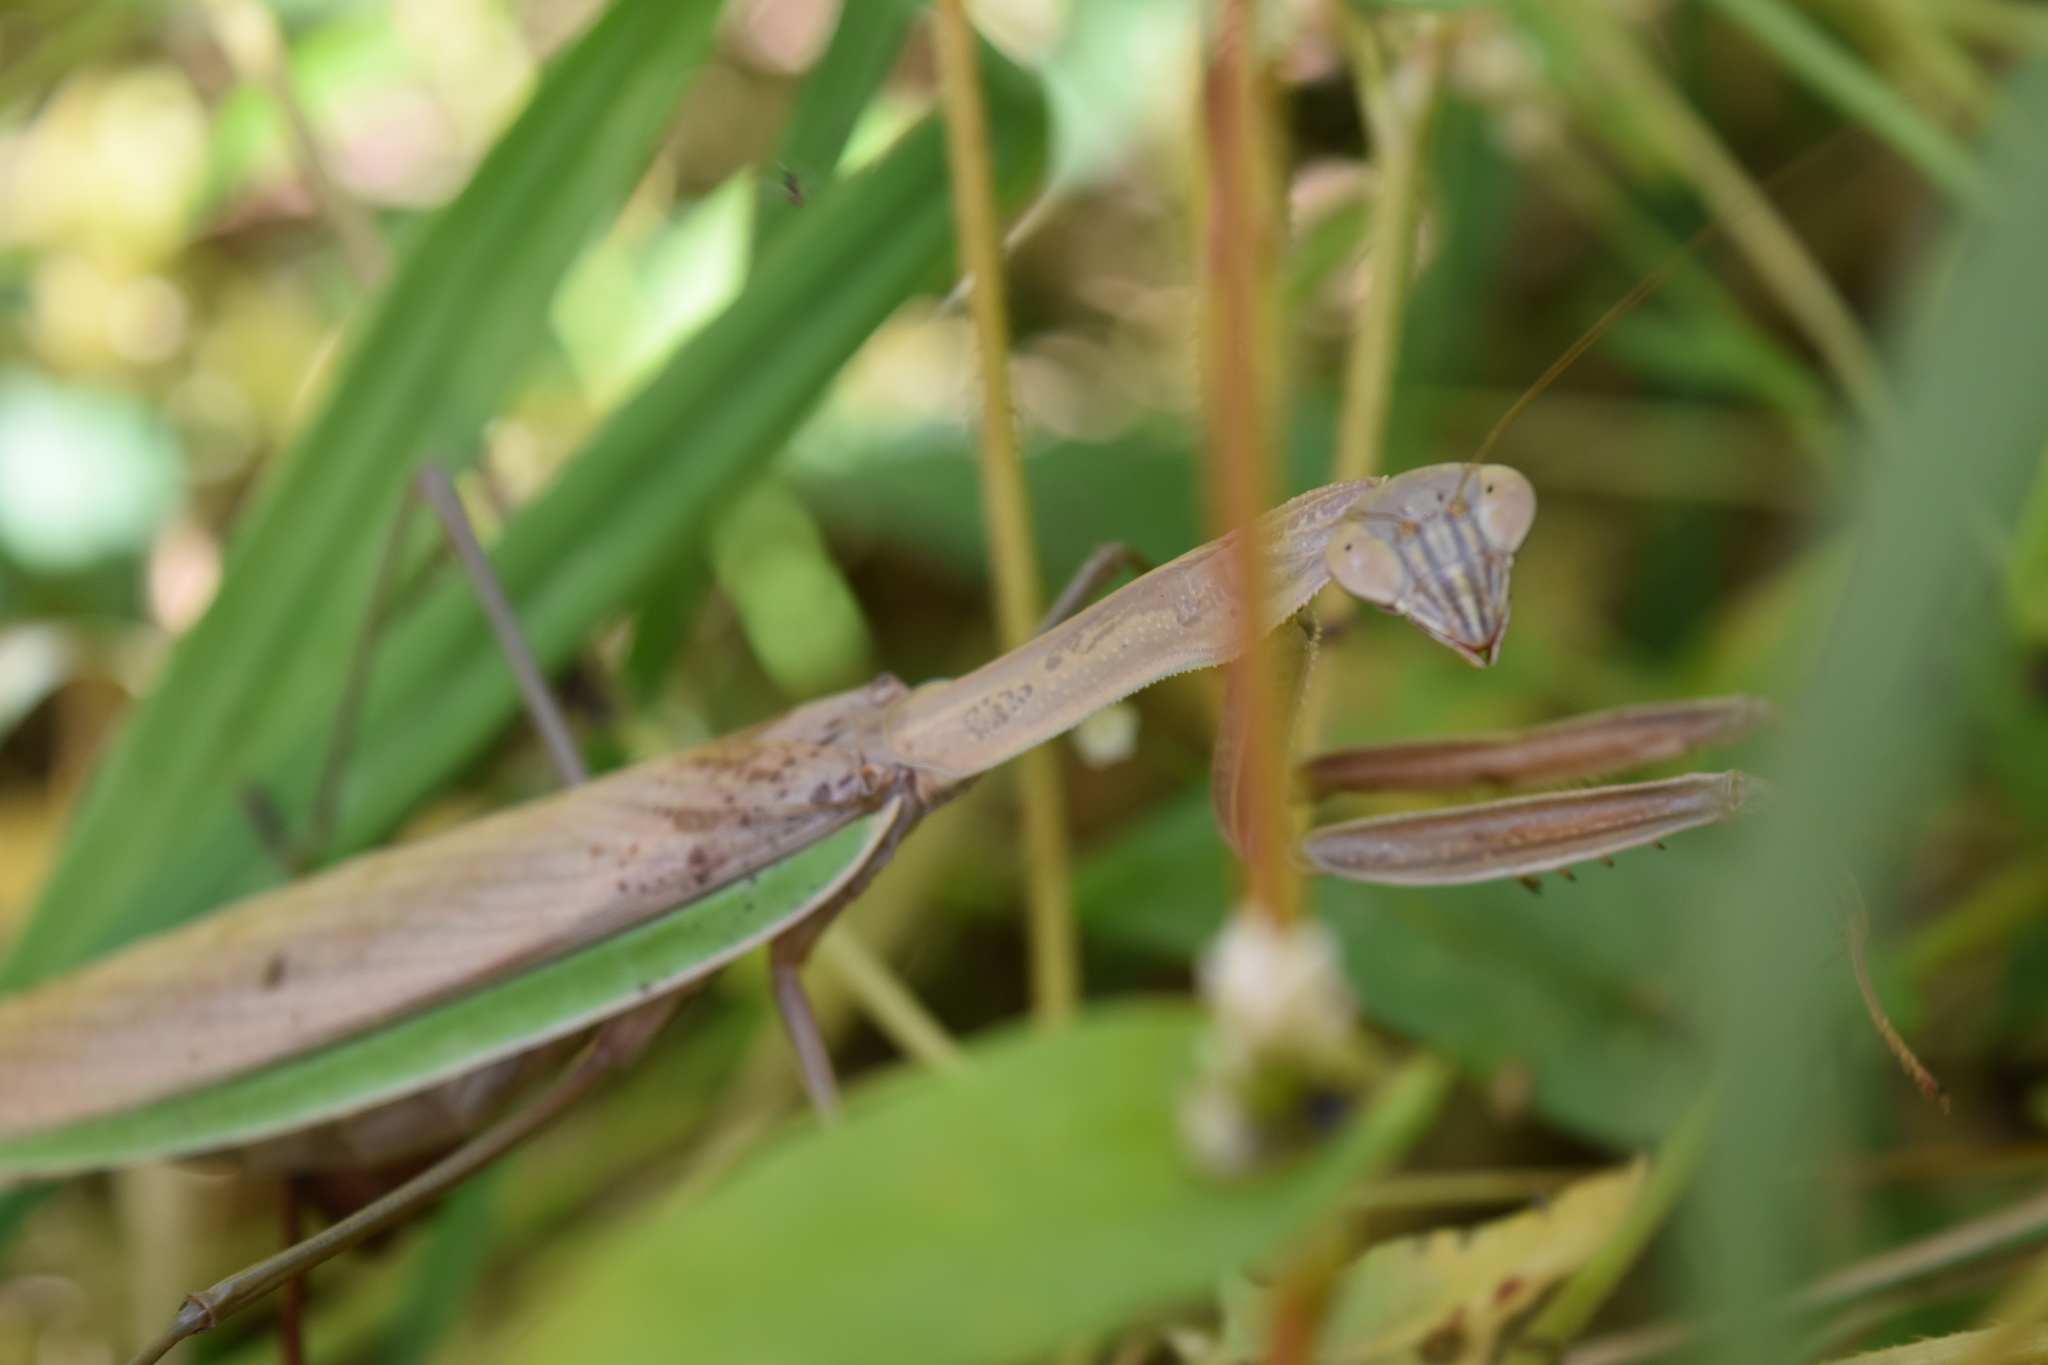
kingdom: Animalia
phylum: Arthropoda
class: Insecta
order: Mantodea
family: Mantidae
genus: Tenodera
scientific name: Tenodera sinensis
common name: Chinese mantis
